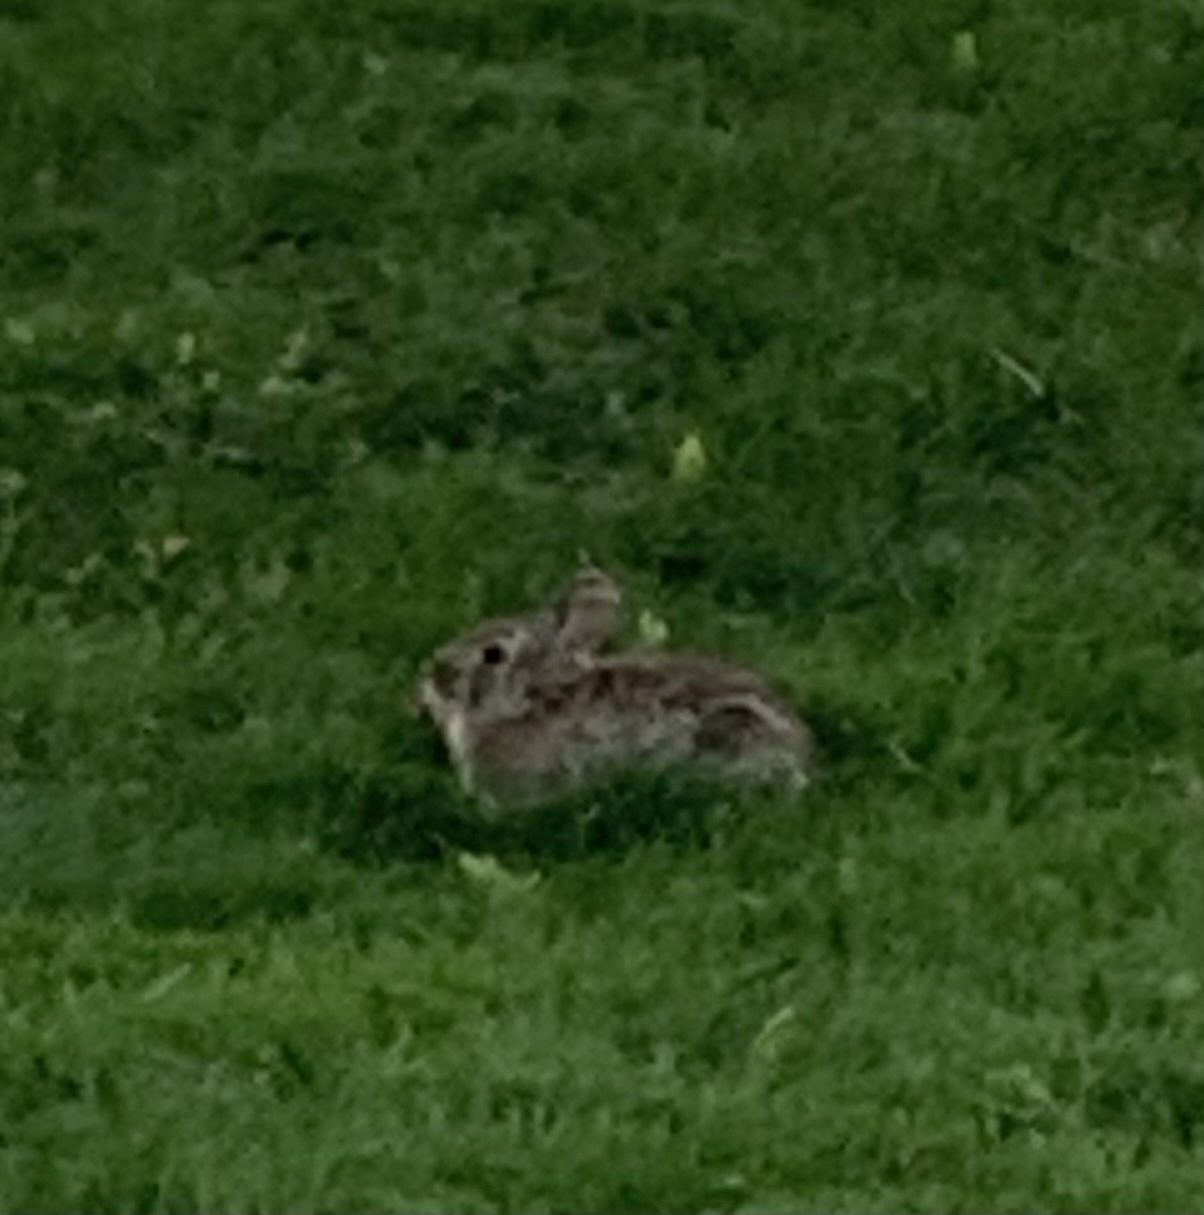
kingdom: Animalia
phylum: Chordata
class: Mammalia
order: Lagomorpha
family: Leporidae
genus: Sylvilagus
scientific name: Sylvilagus floridanus
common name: Eastern cottontail
